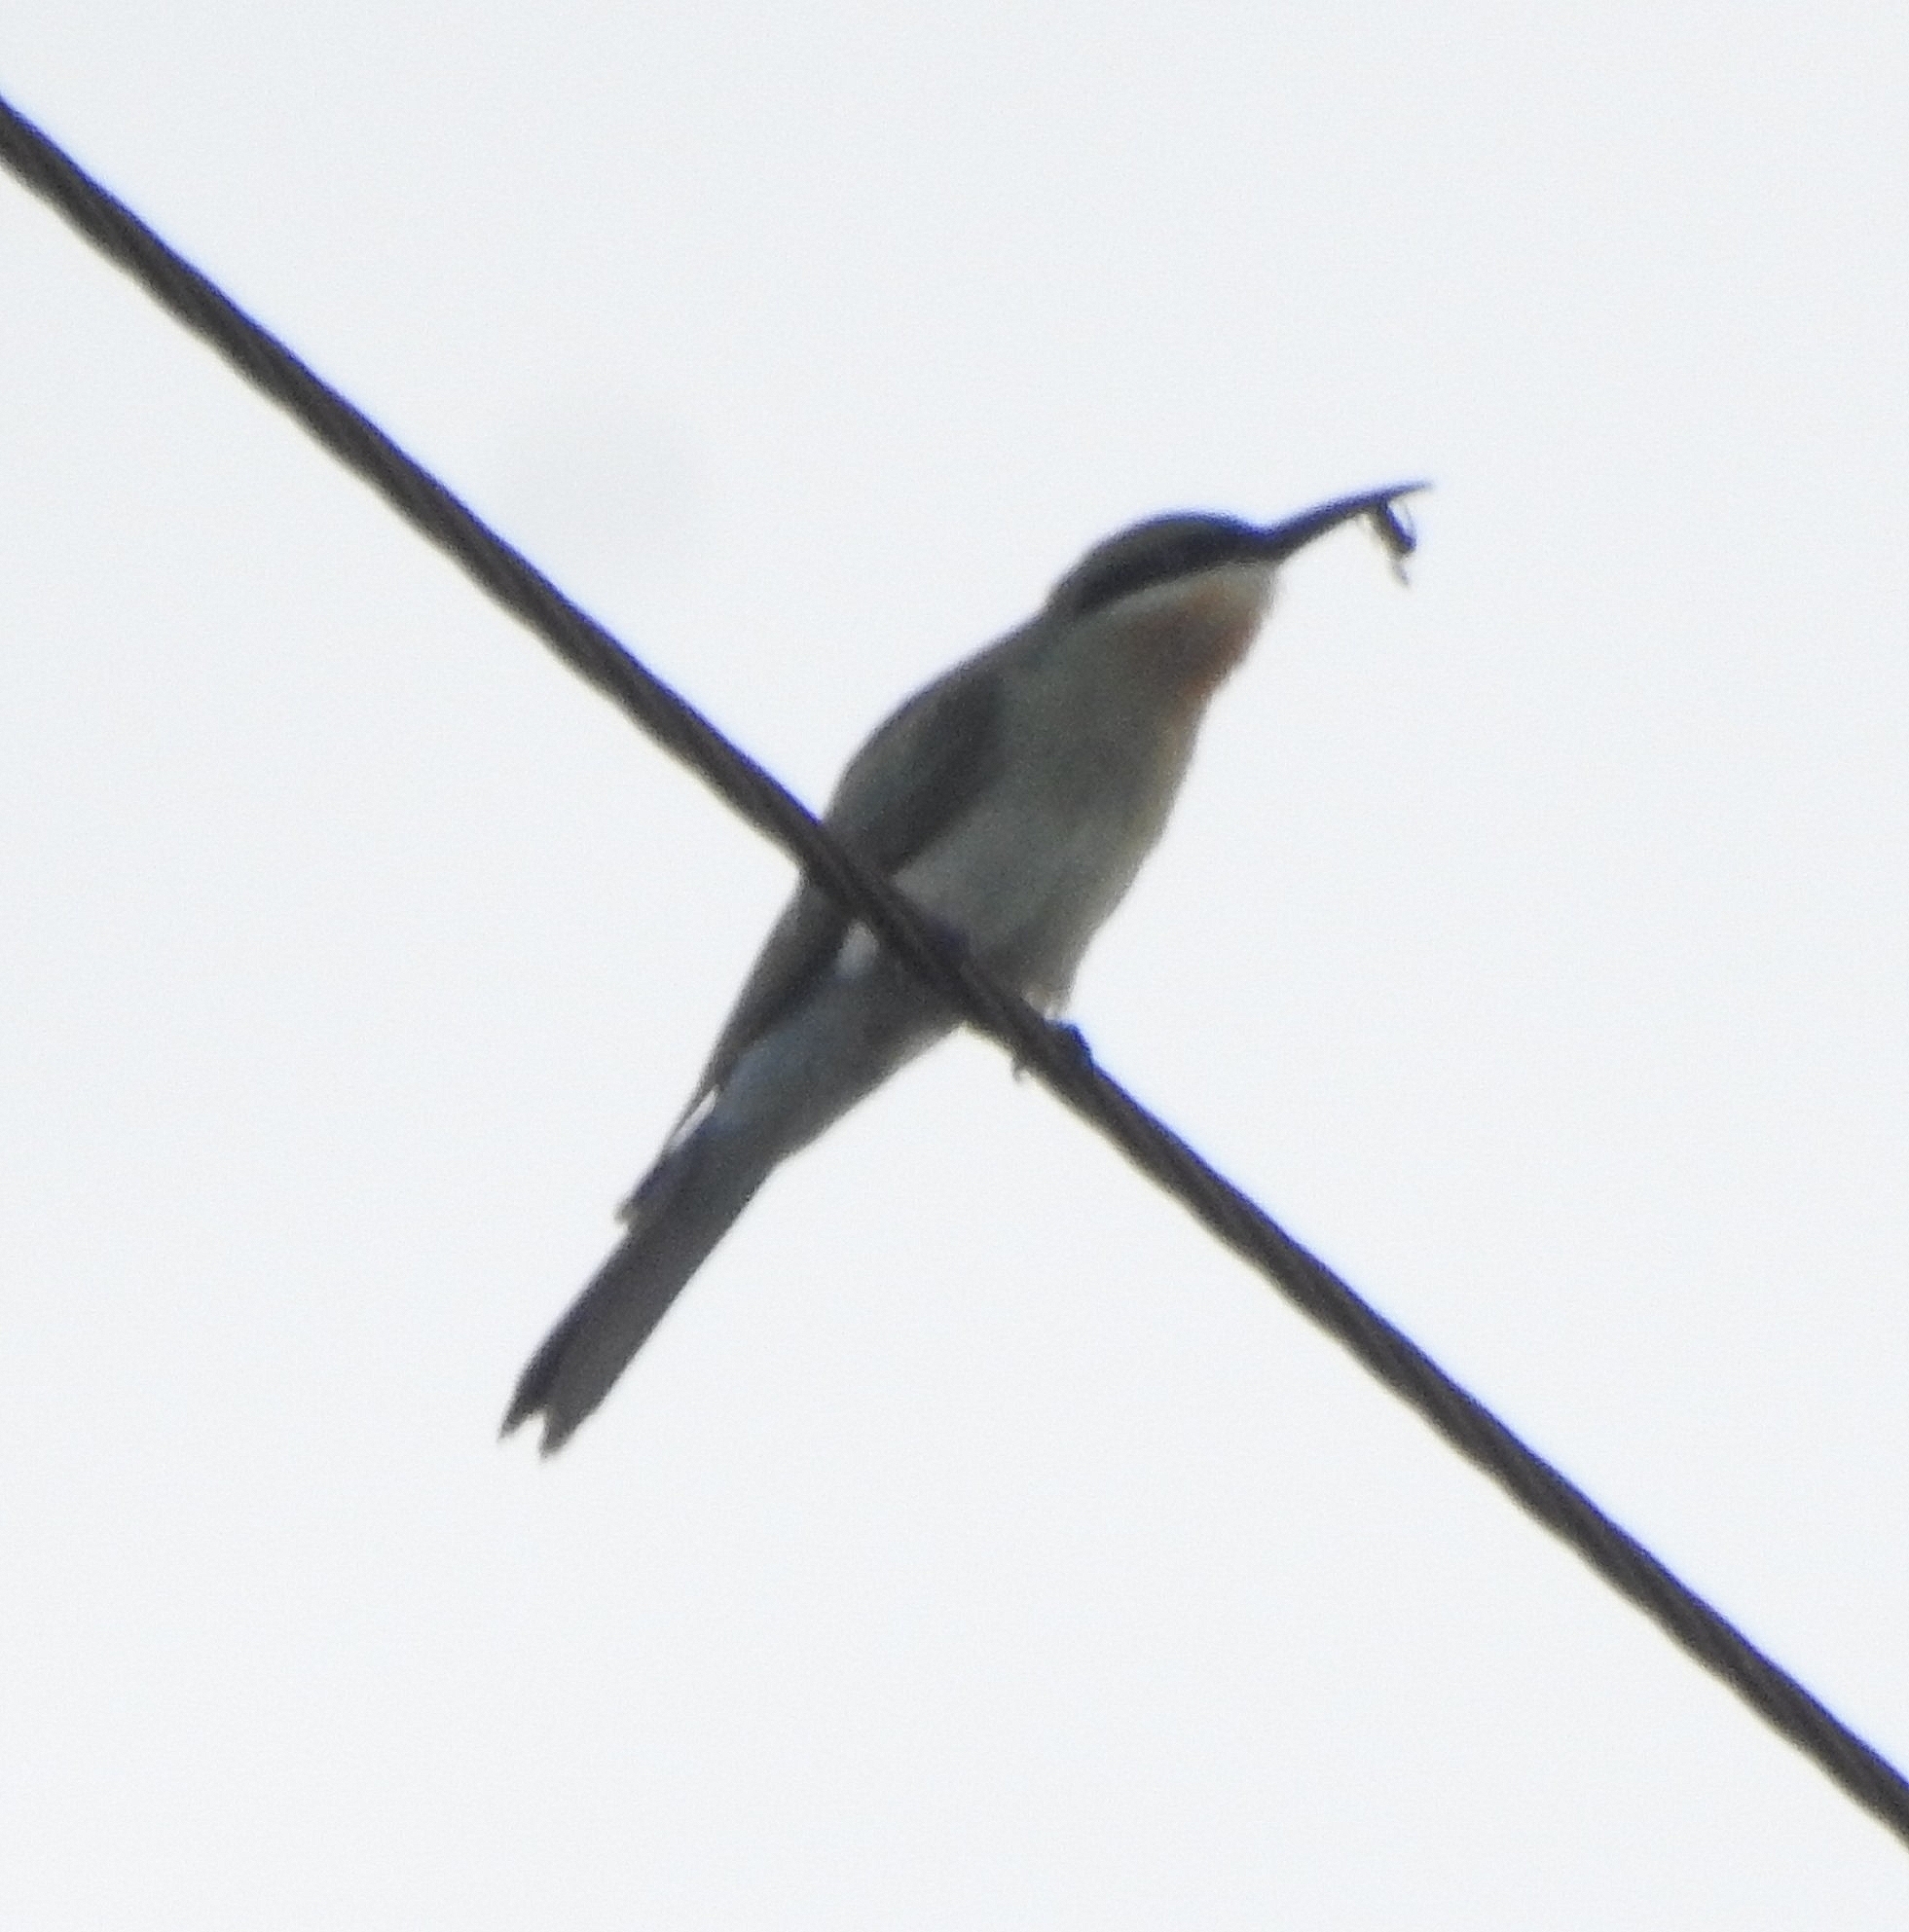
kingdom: Animalia
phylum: Chordata
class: Aves
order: Coraciiformes
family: Meropidae
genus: Merops
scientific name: Merops philippinus
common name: Blue-tailed bee-eater
